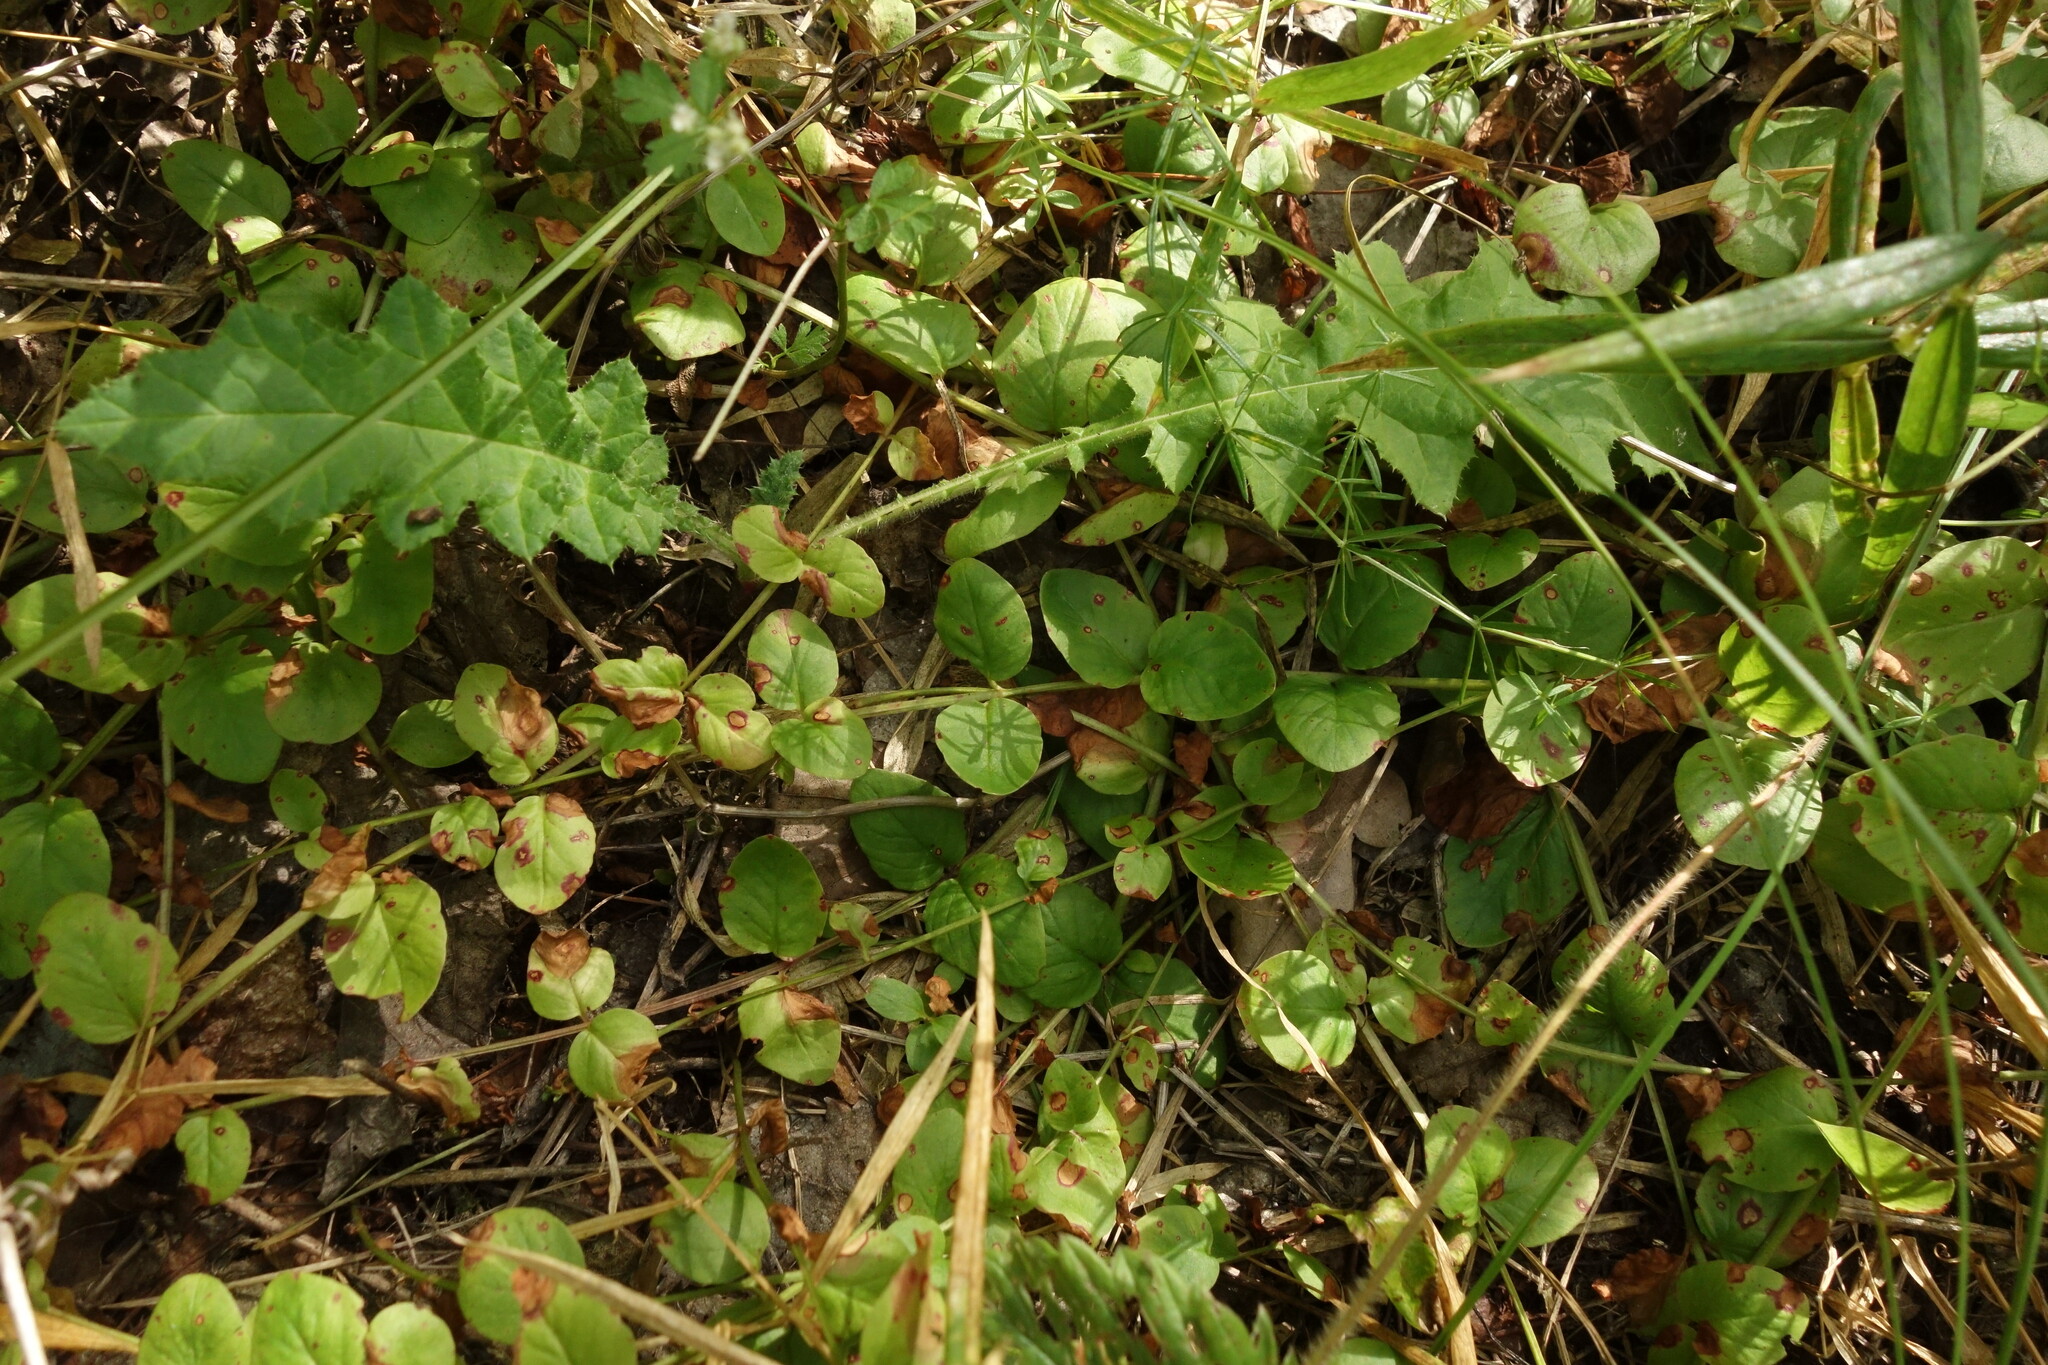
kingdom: Plantae
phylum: Tracheophyta
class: Magnoliopsida
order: Ericales
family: Primulaceae
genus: Lysimachia
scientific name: Lysimachia nummularia
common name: Moneywort
